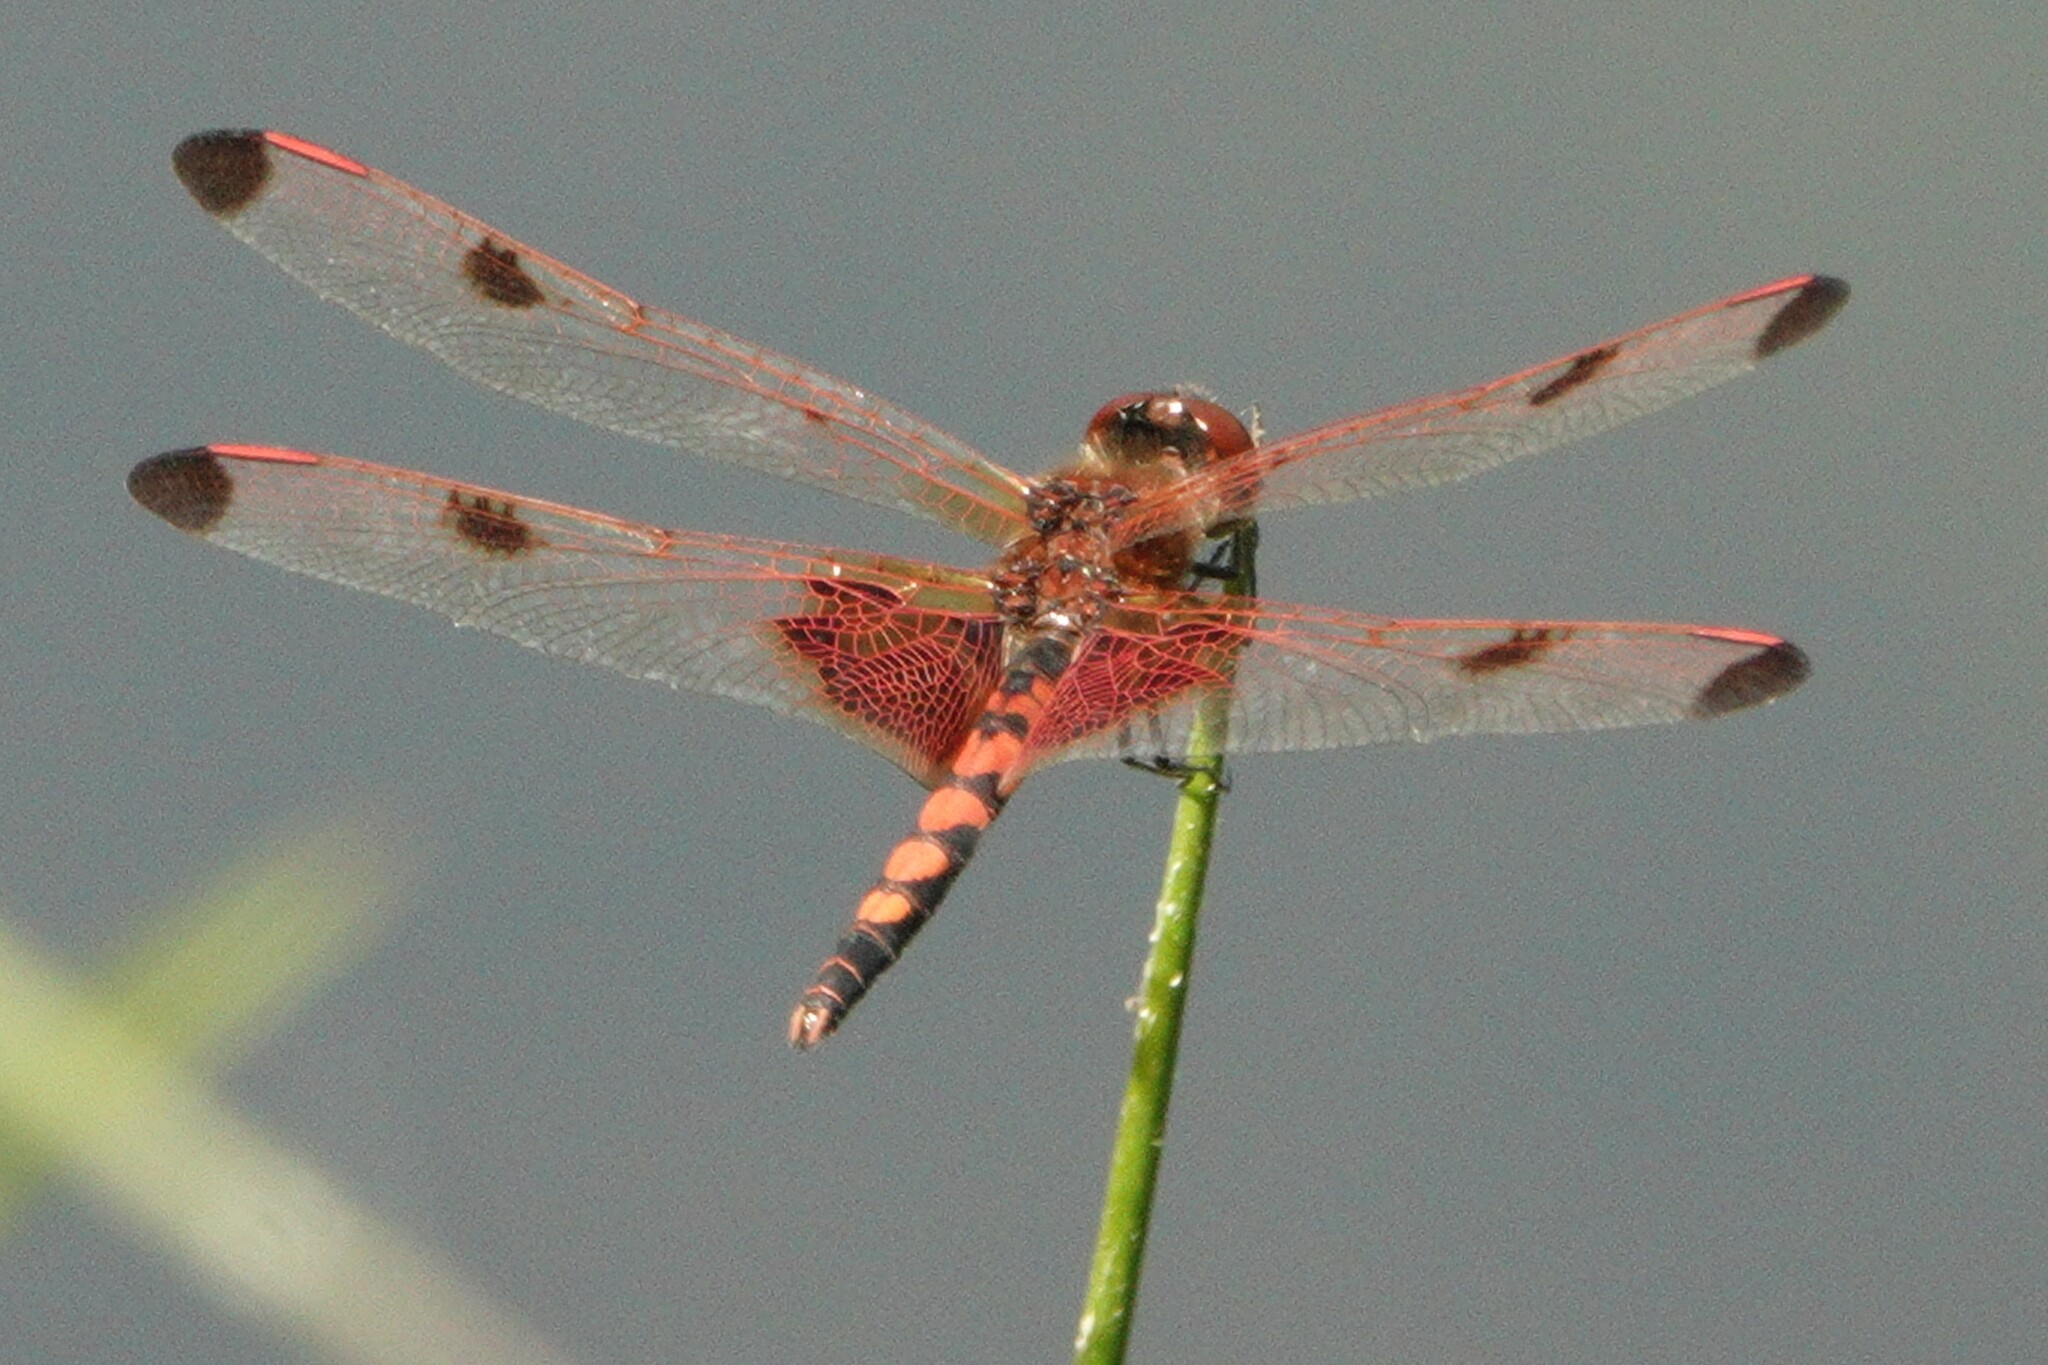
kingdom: Animalia
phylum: Arthropoda
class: Insecta
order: Odonata
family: Libellulidae
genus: Celithemis
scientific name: Celithemis elisa
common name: Calico pennant
